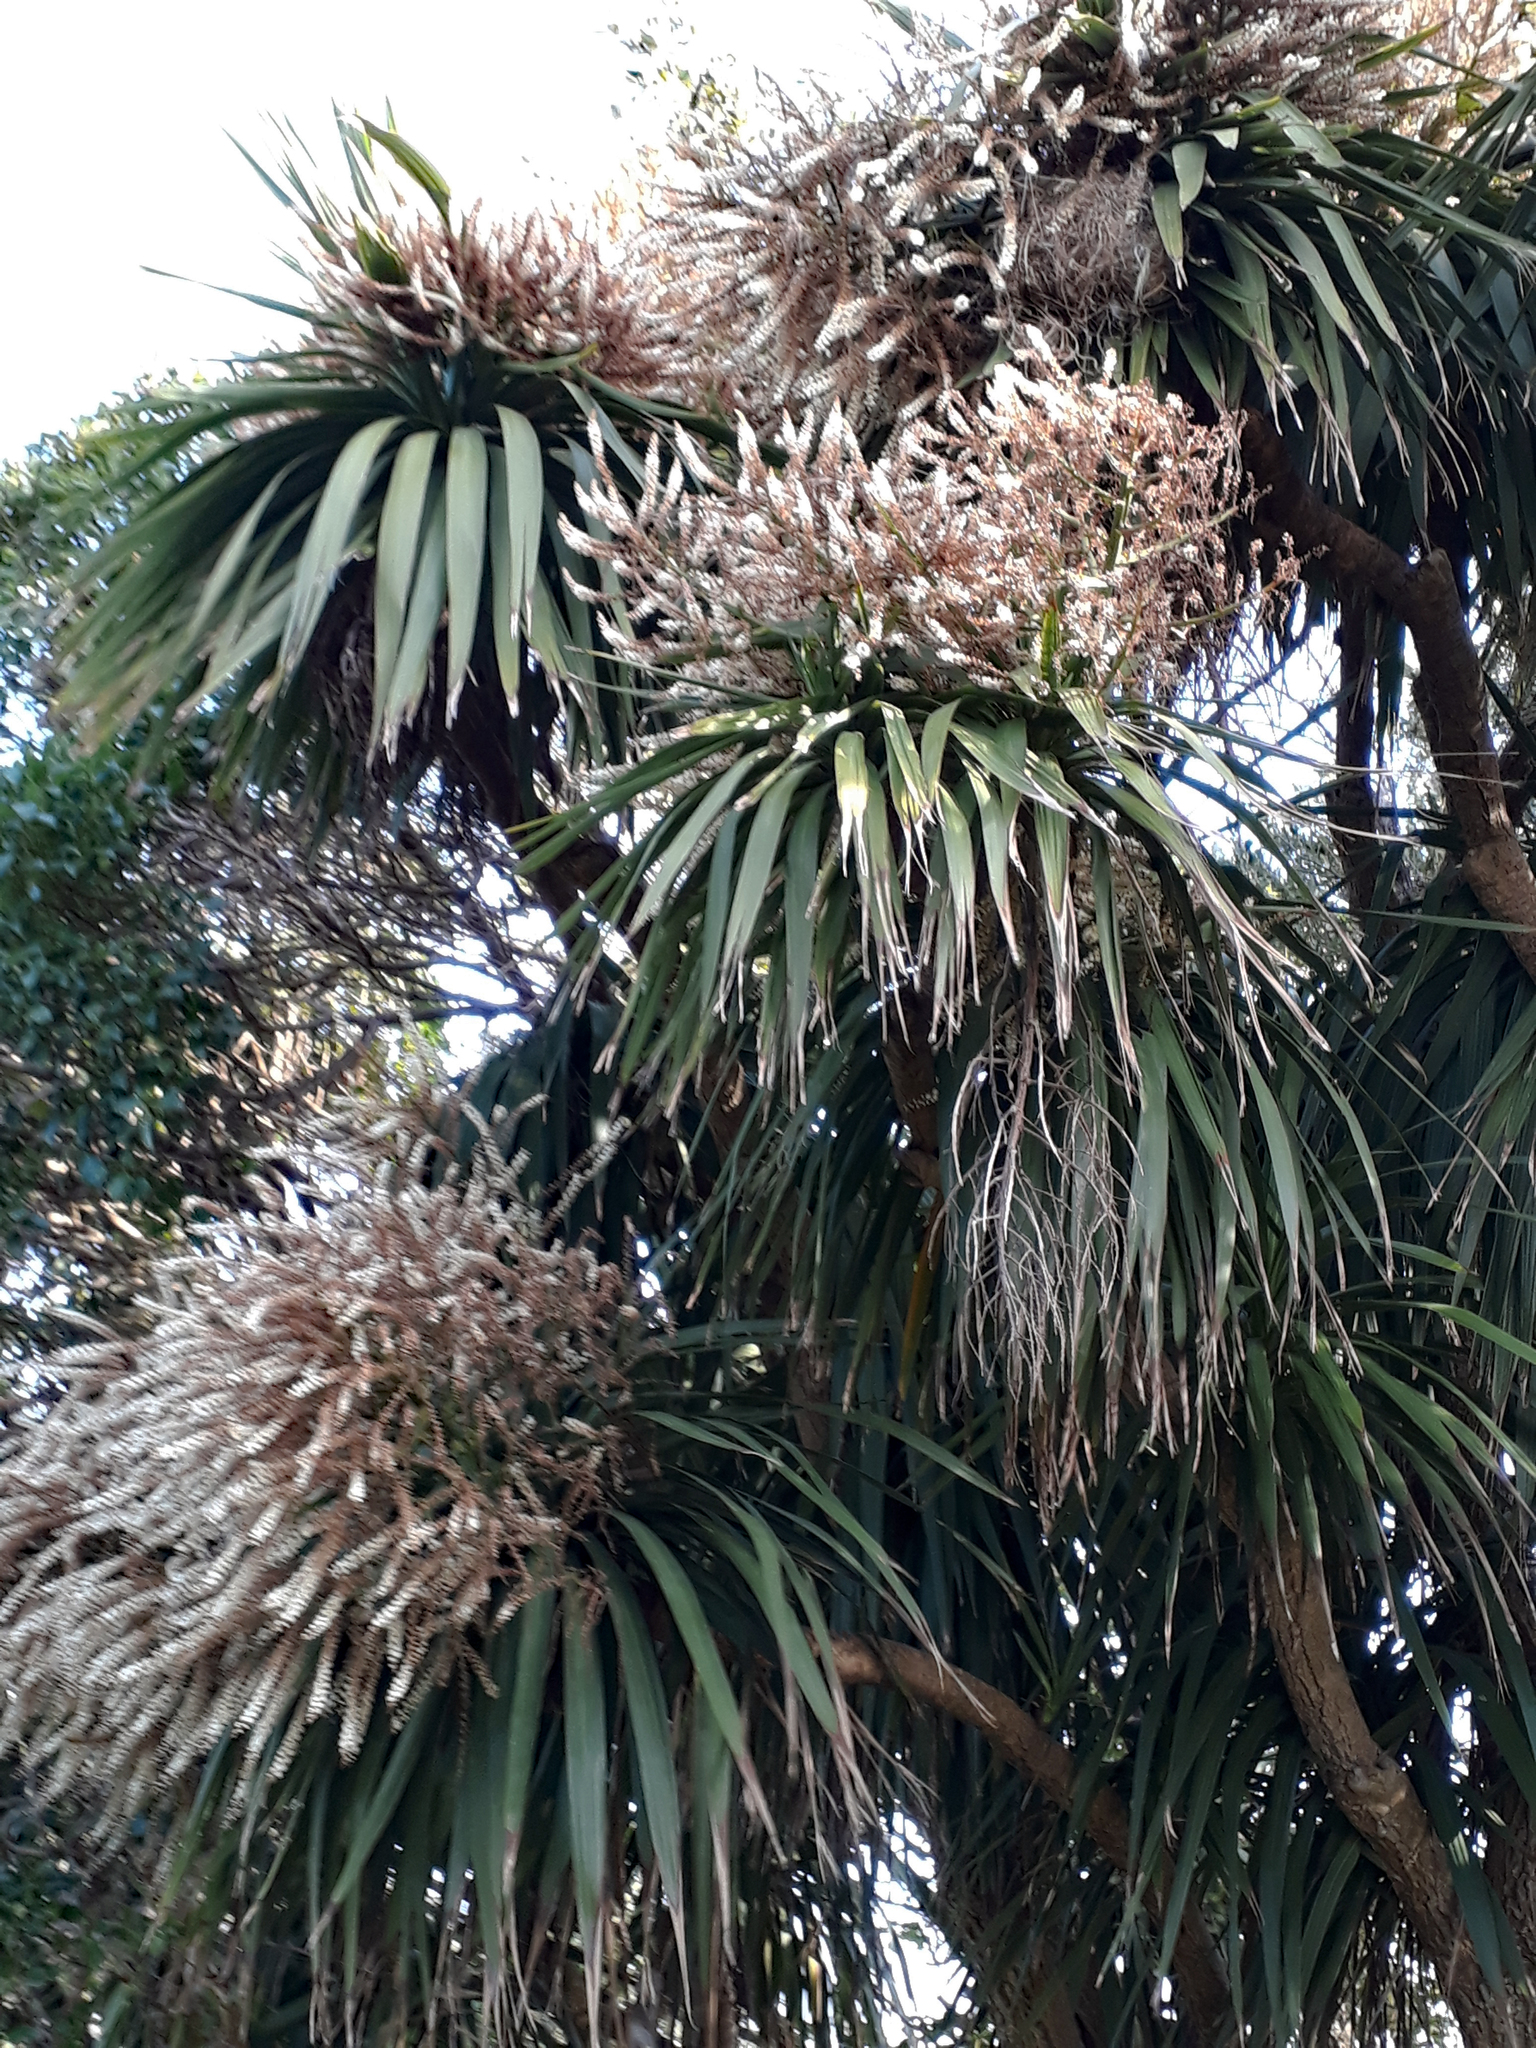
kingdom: Plantae
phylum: Tracheophyta
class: Liliopsida
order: Asparagales
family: Asparagaceae
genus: Cordyline
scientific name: Cordyline australis
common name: Cabbage-palm
